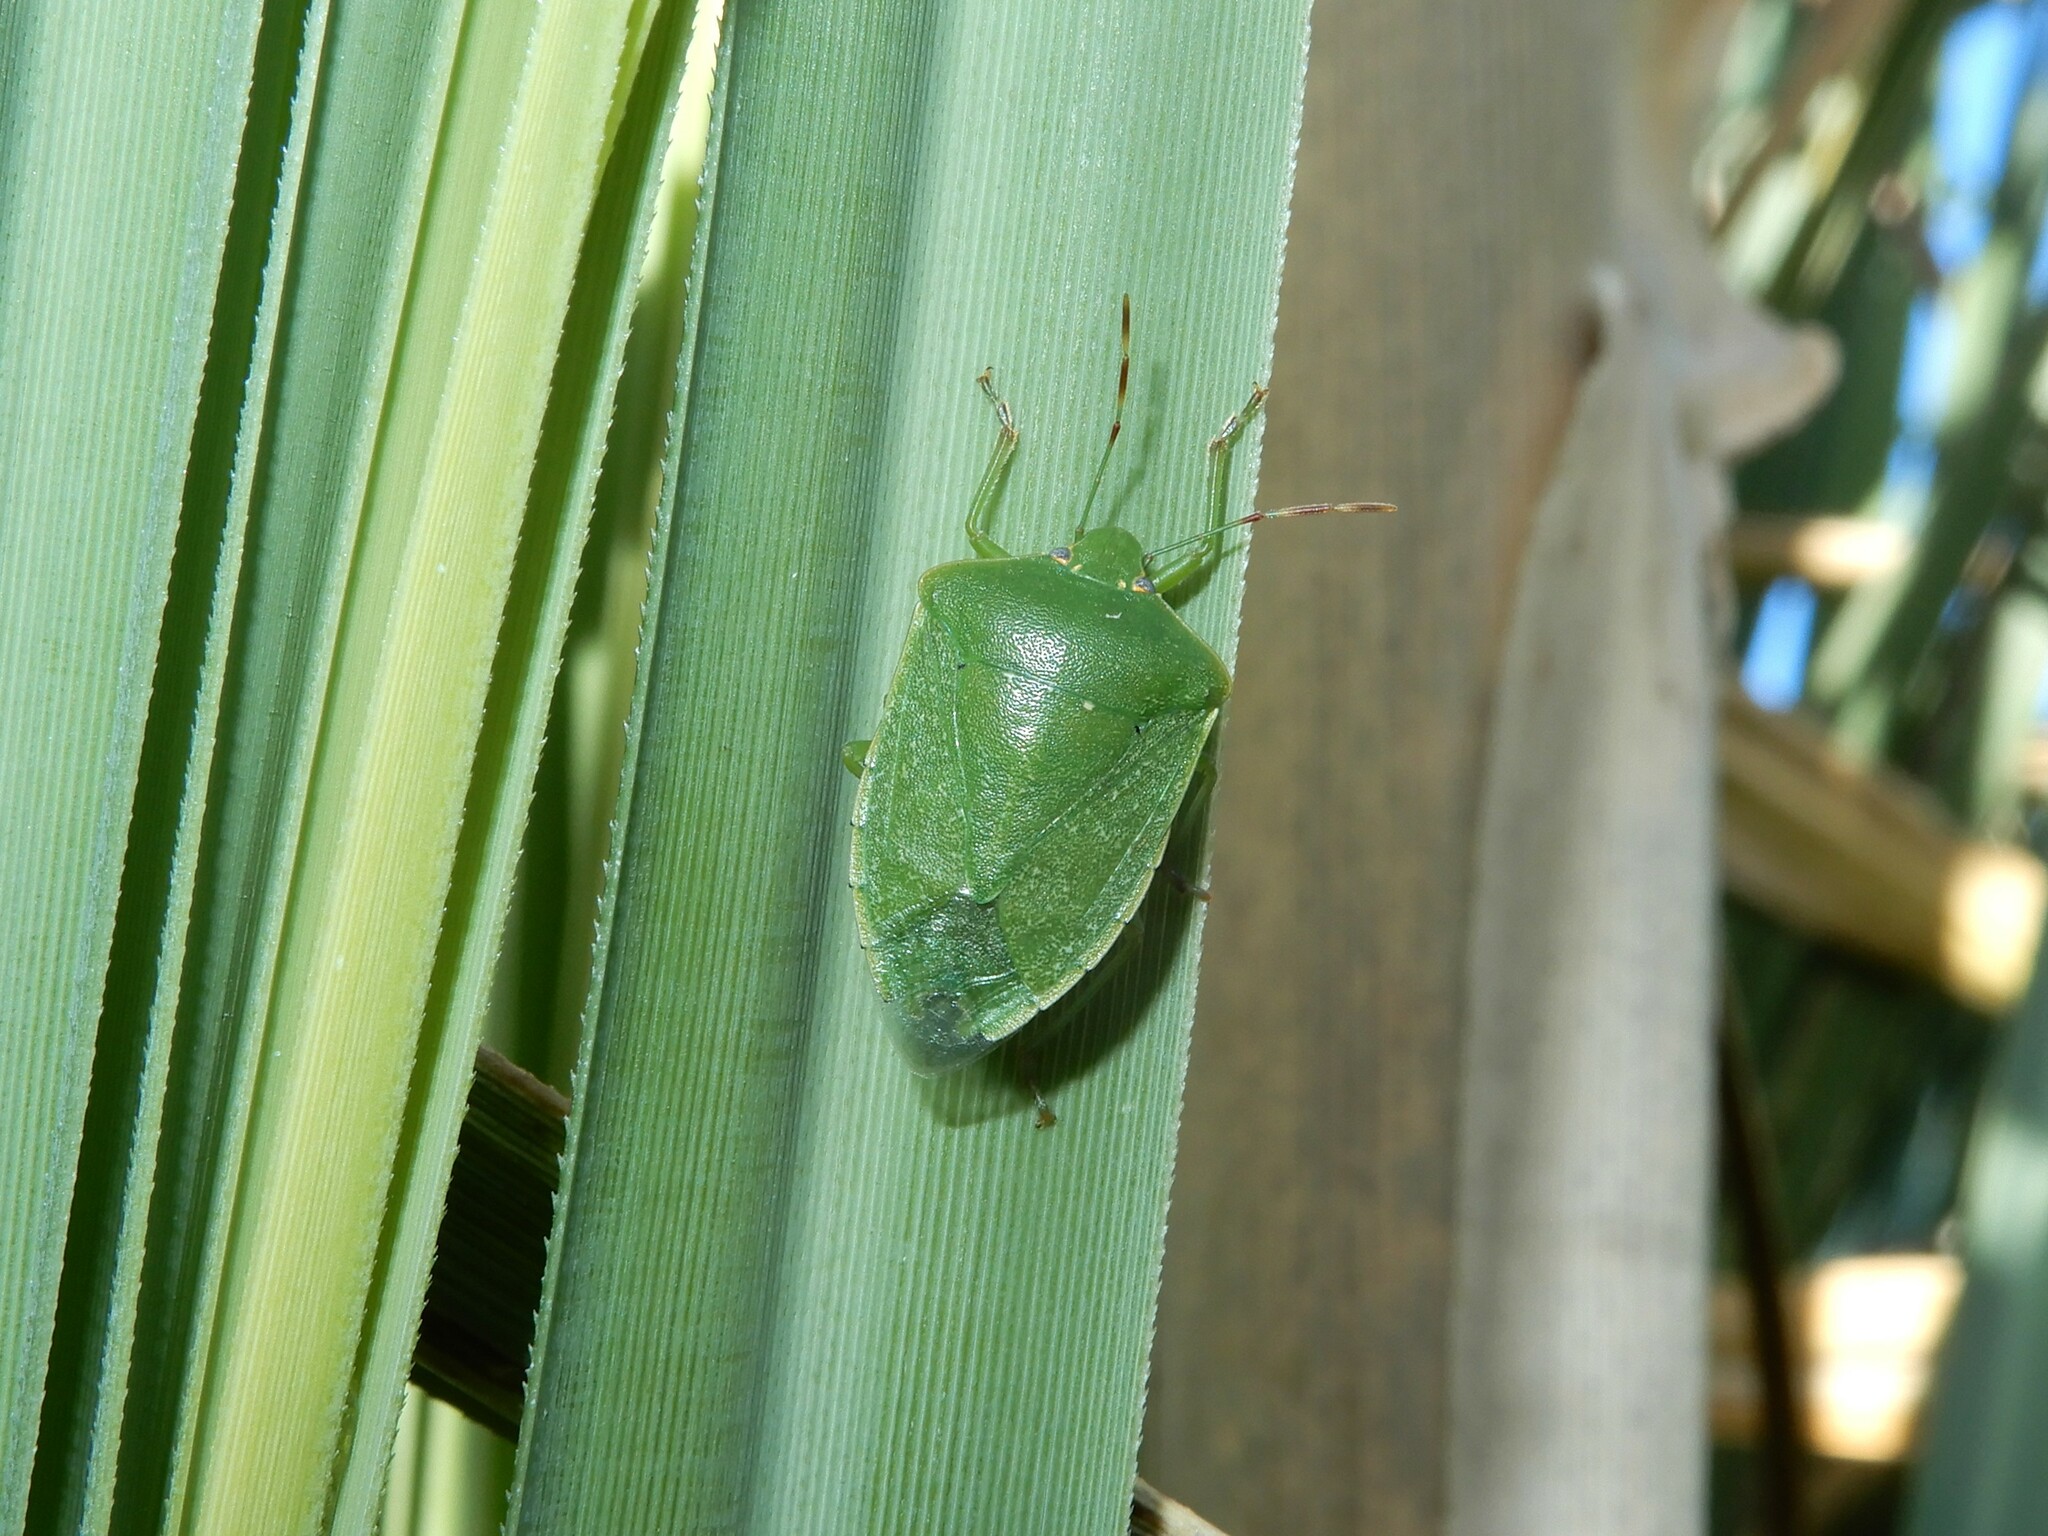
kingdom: Animalia
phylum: Arthropoda
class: Insecta
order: Hemiptera
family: Pentatomidae
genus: Nezara
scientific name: Nezara viridula
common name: Southern green stink bug
